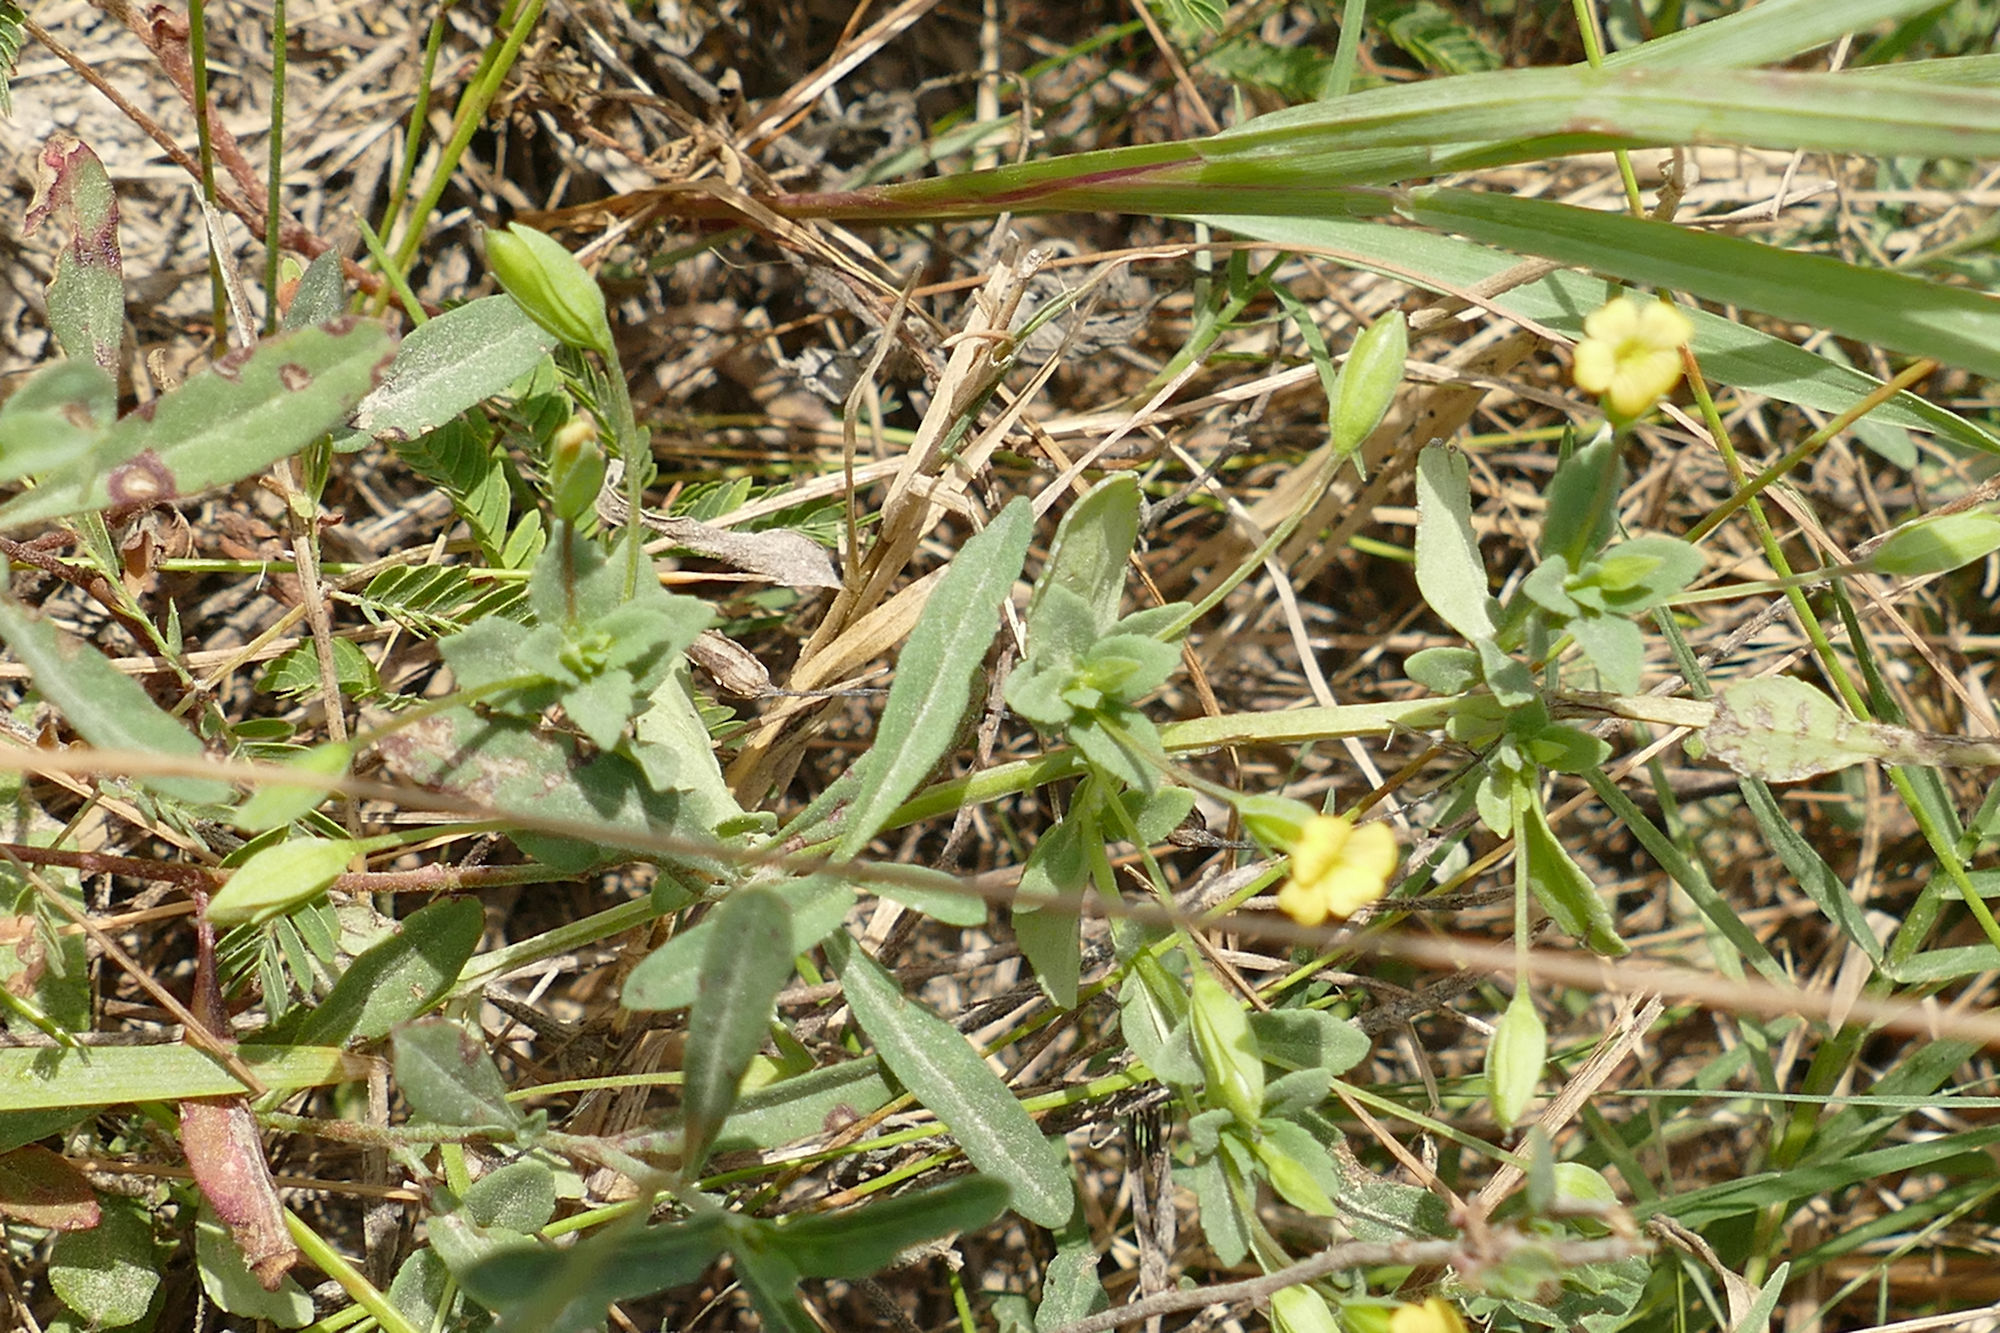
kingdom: Plantae
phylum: Tracheophyta
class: Magnoliopsida
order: Lamiales
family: Plantaginaceae
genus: Mecardonia
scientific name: Mecardonia procumbens
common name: Baby jump-up
